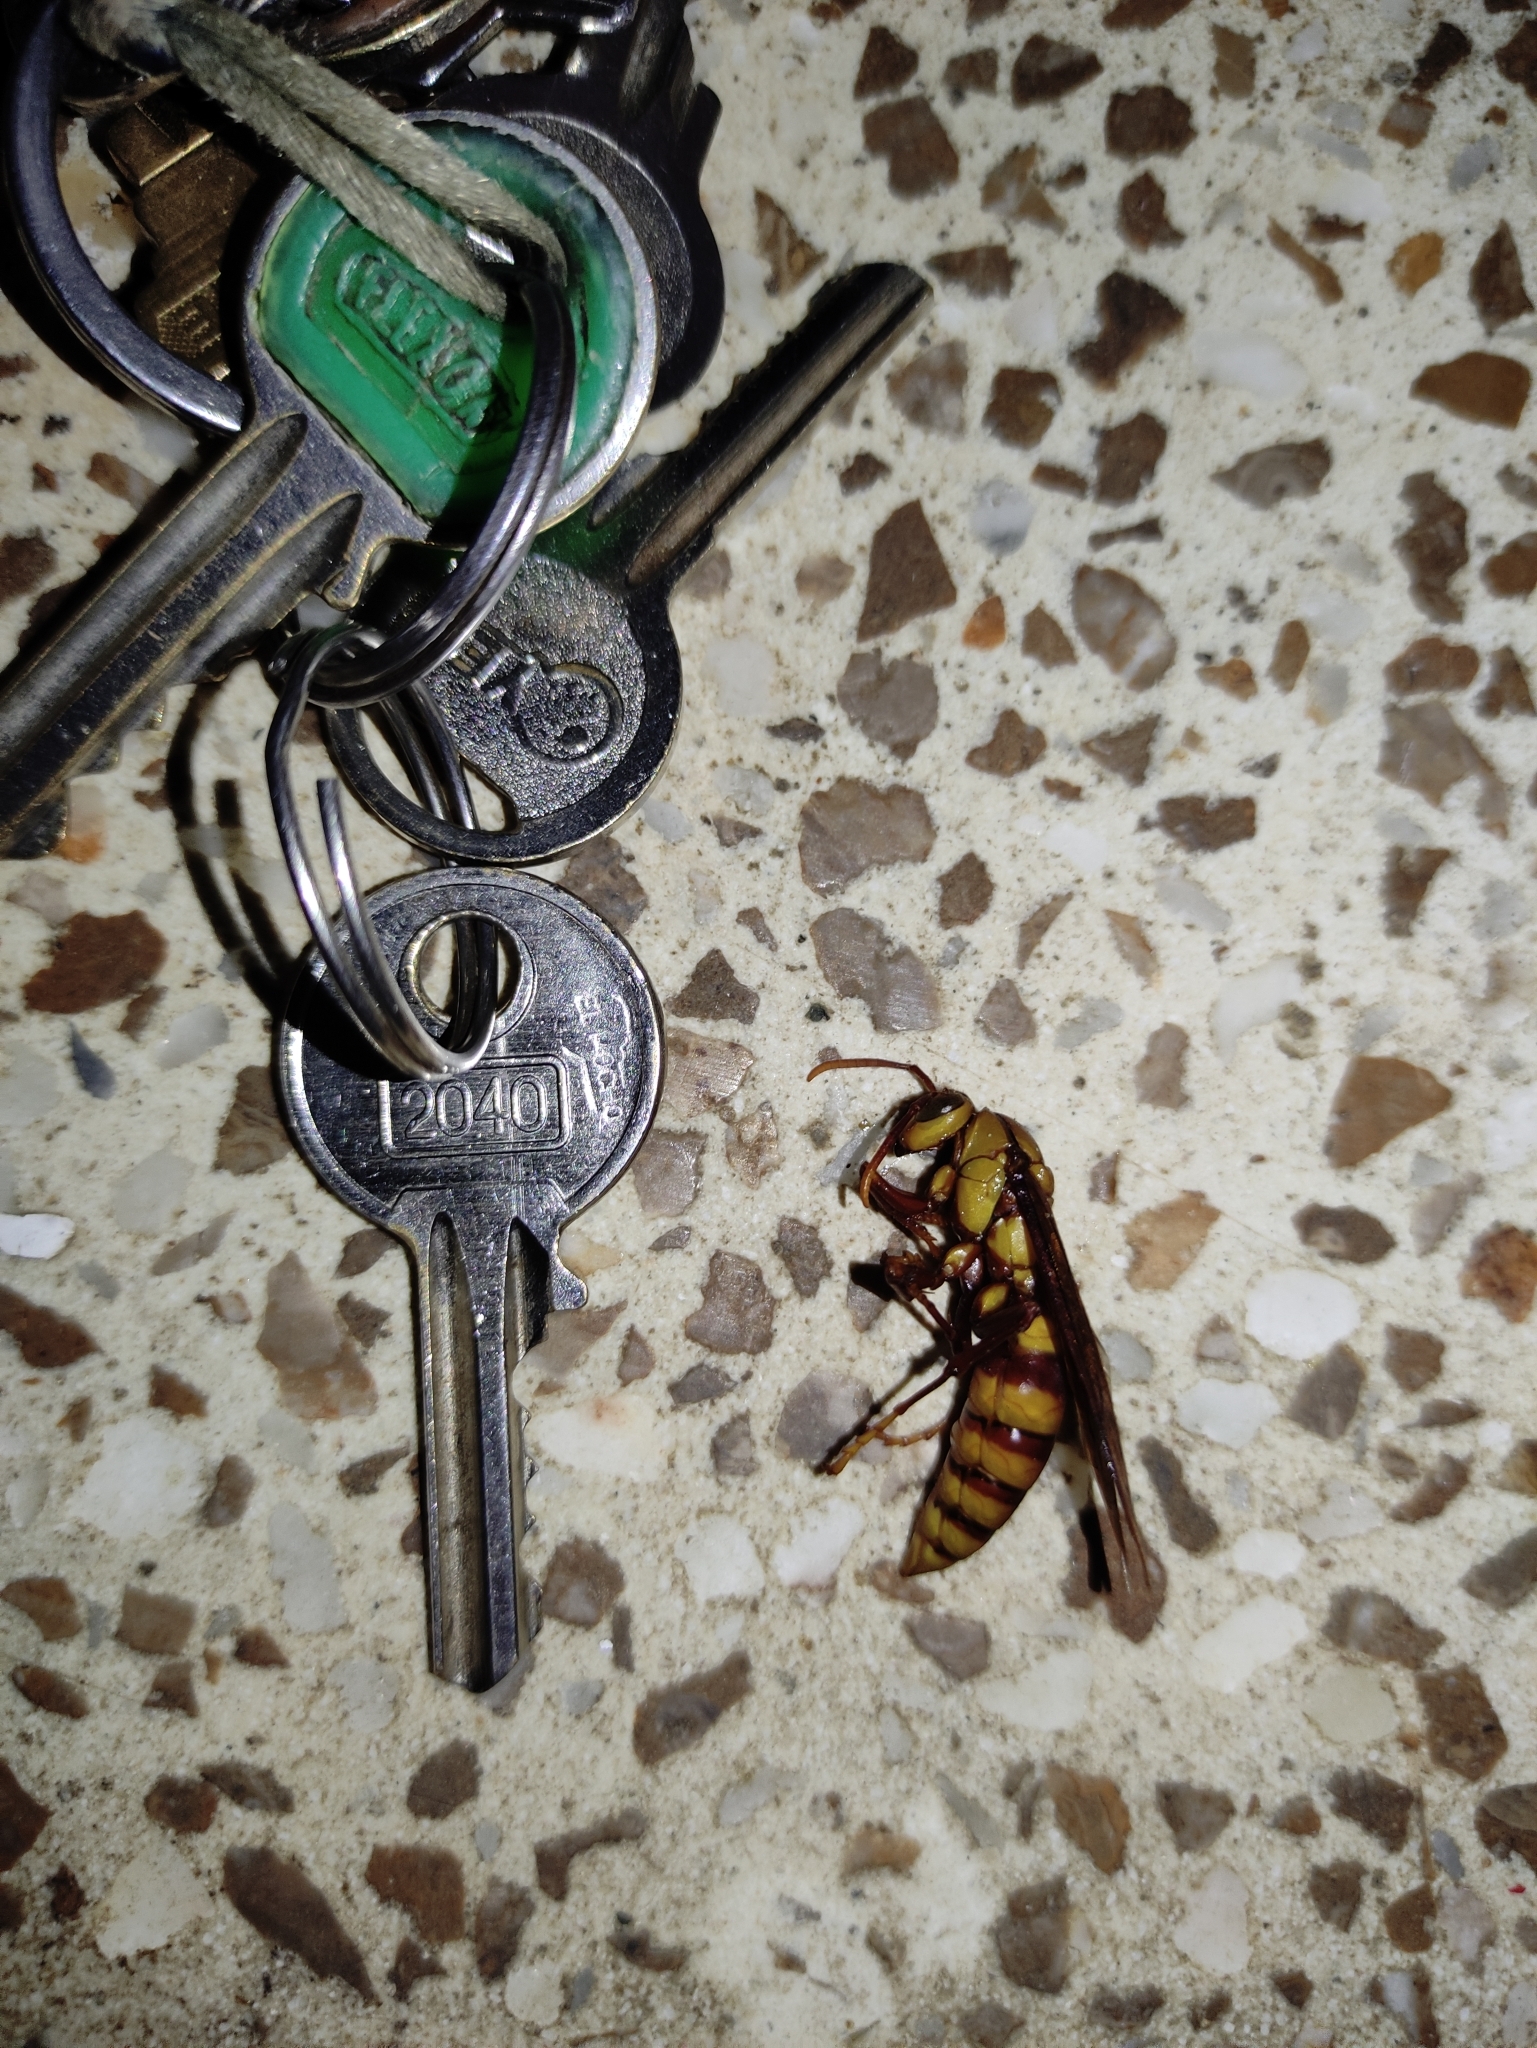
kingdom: Animalia
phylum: Arthropoda
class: Insecta
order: Hymenoptera
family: Eumenidae
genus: Polistes
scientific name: Polistes carnifex
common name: Paper wasp
